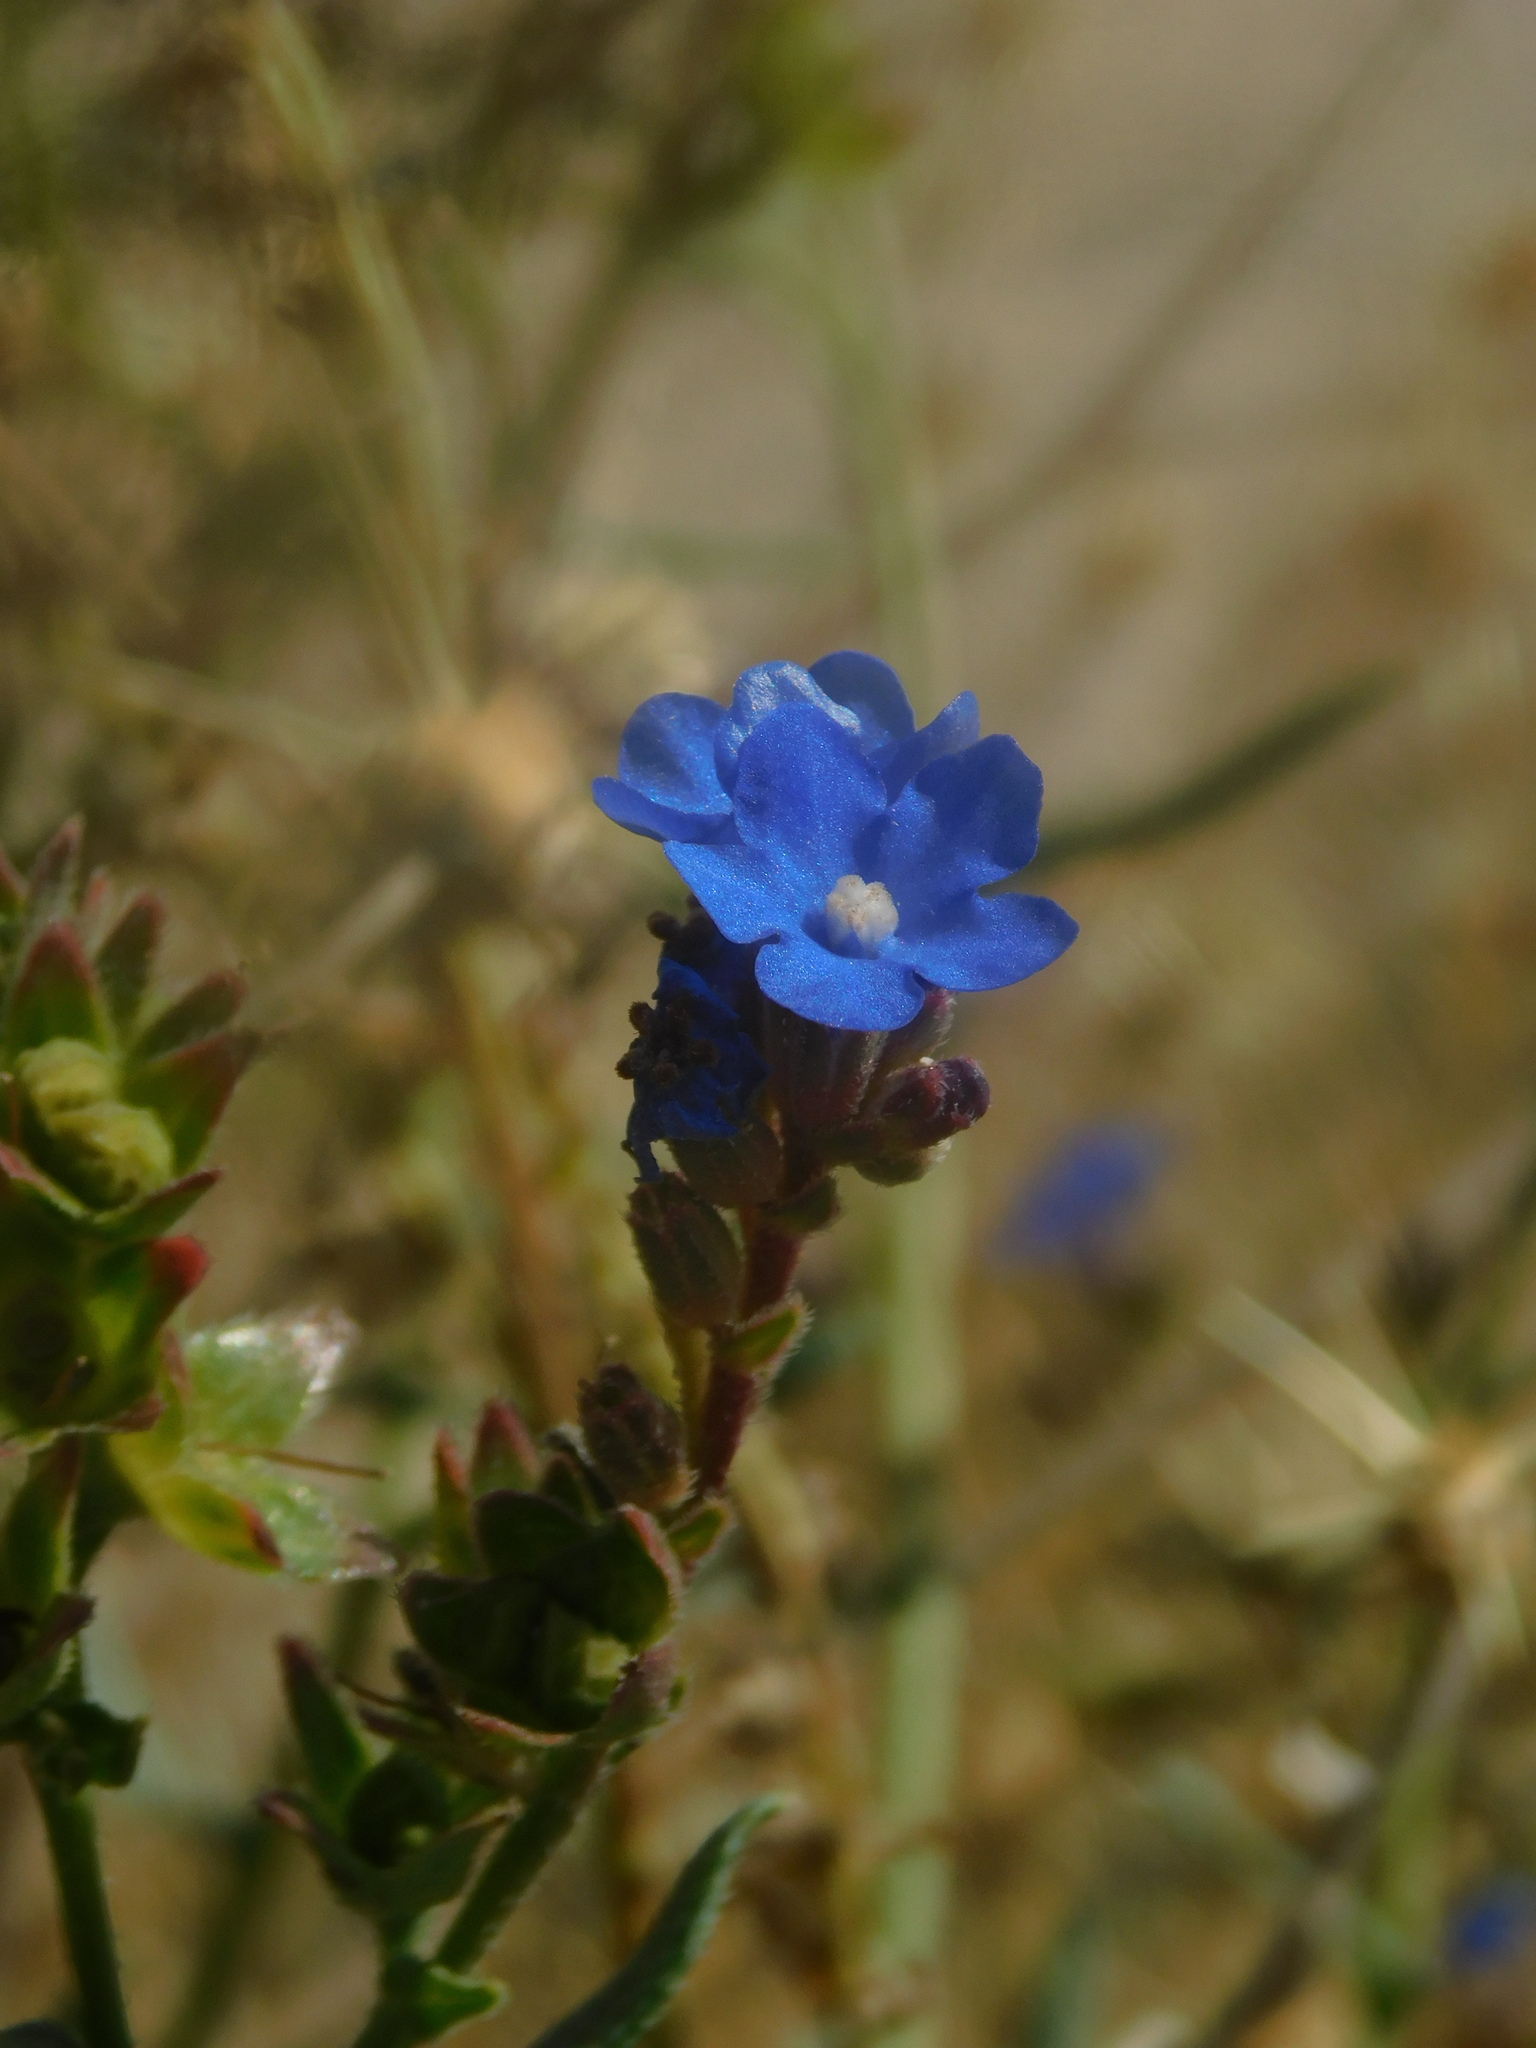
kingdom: Plantae
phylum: Tracheophyta
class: Magnoliopsida
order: Boraginales
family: Boraginaceae
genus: Anchusa
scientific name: Anchusa azurea
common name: Garden anchusa
